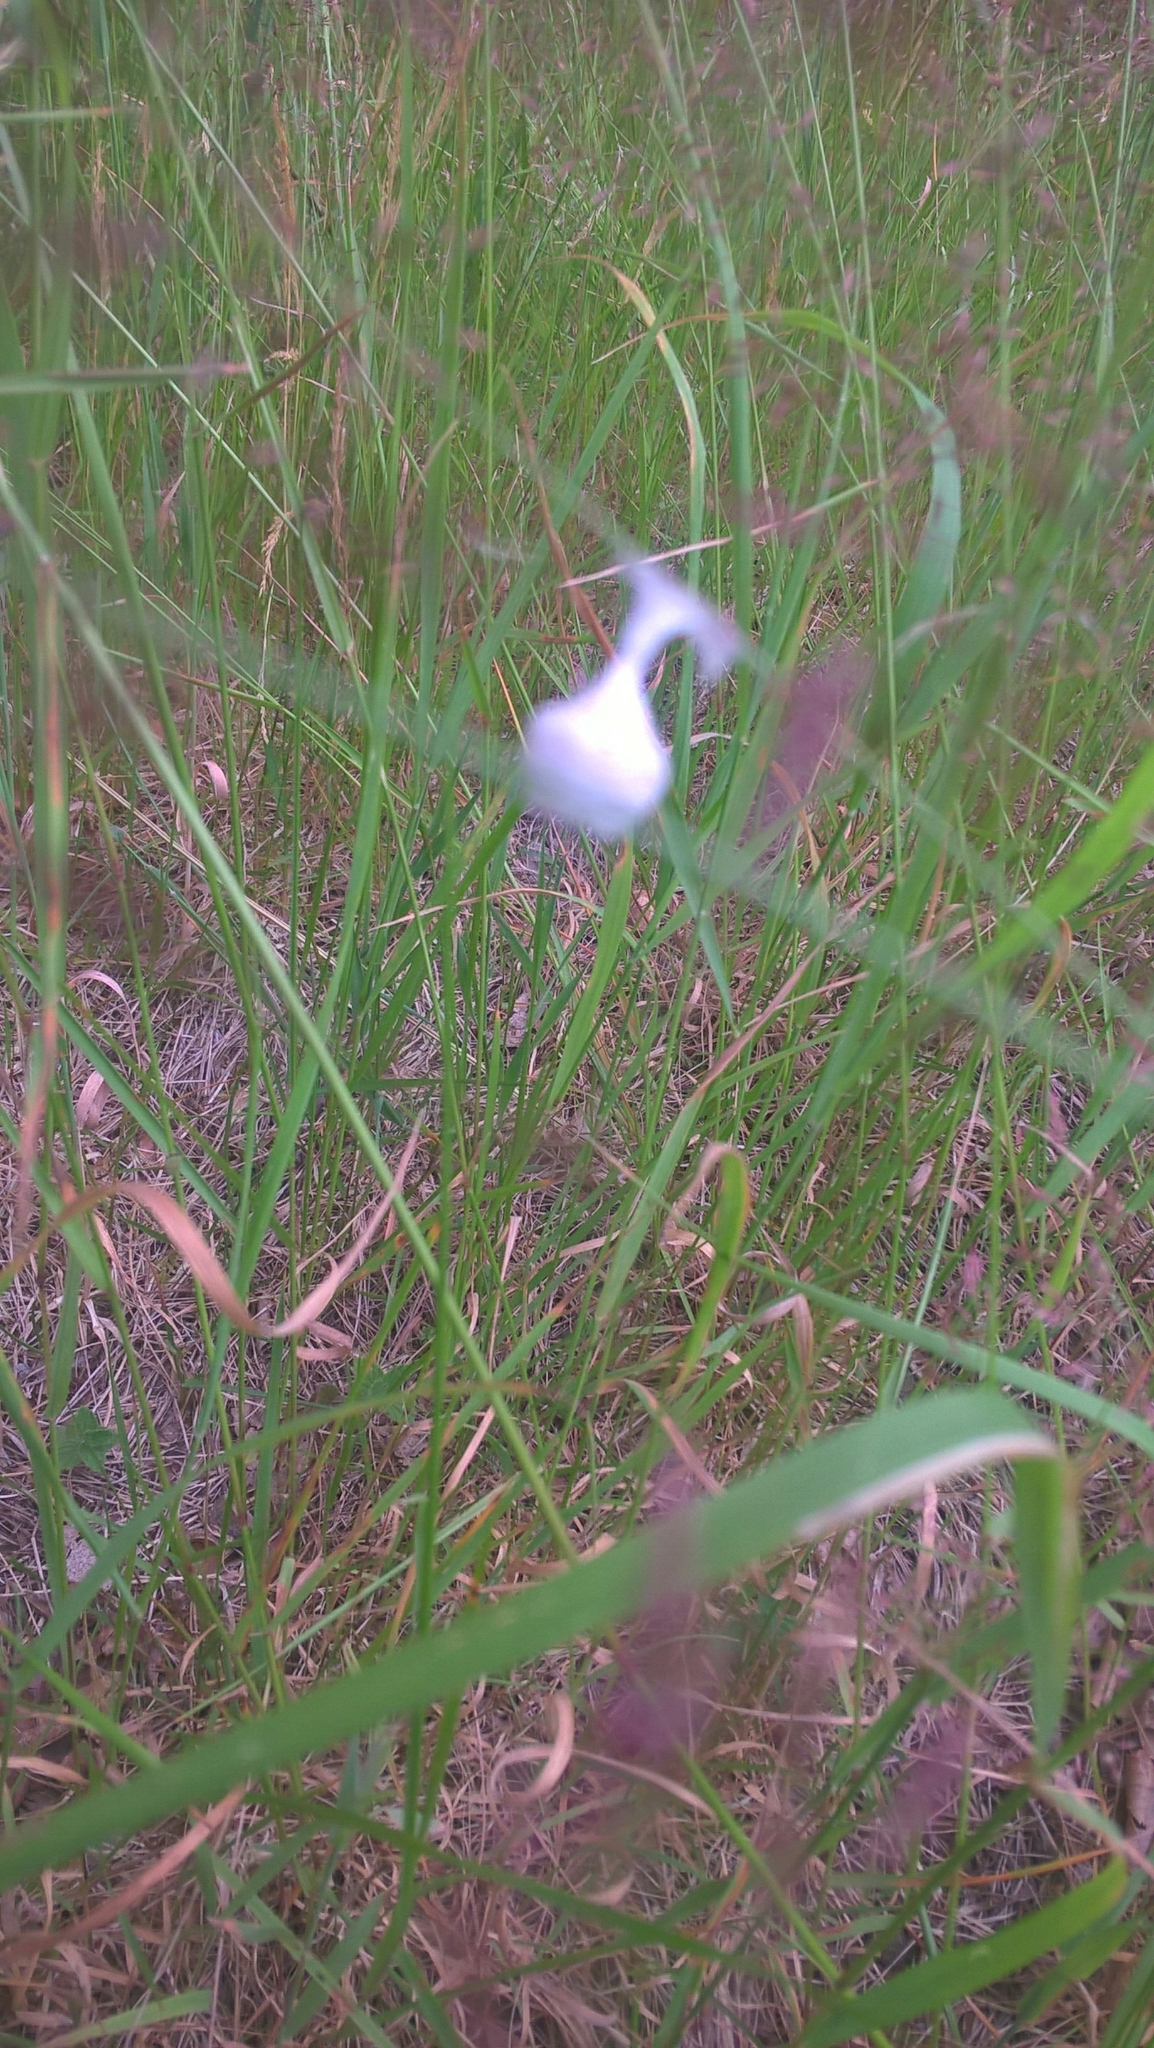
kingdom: Animalia
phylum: Arthropoda
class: Arachnida
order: Araneae
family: Liocranidae
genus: Agroeca
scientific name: Agroeca brunnea
